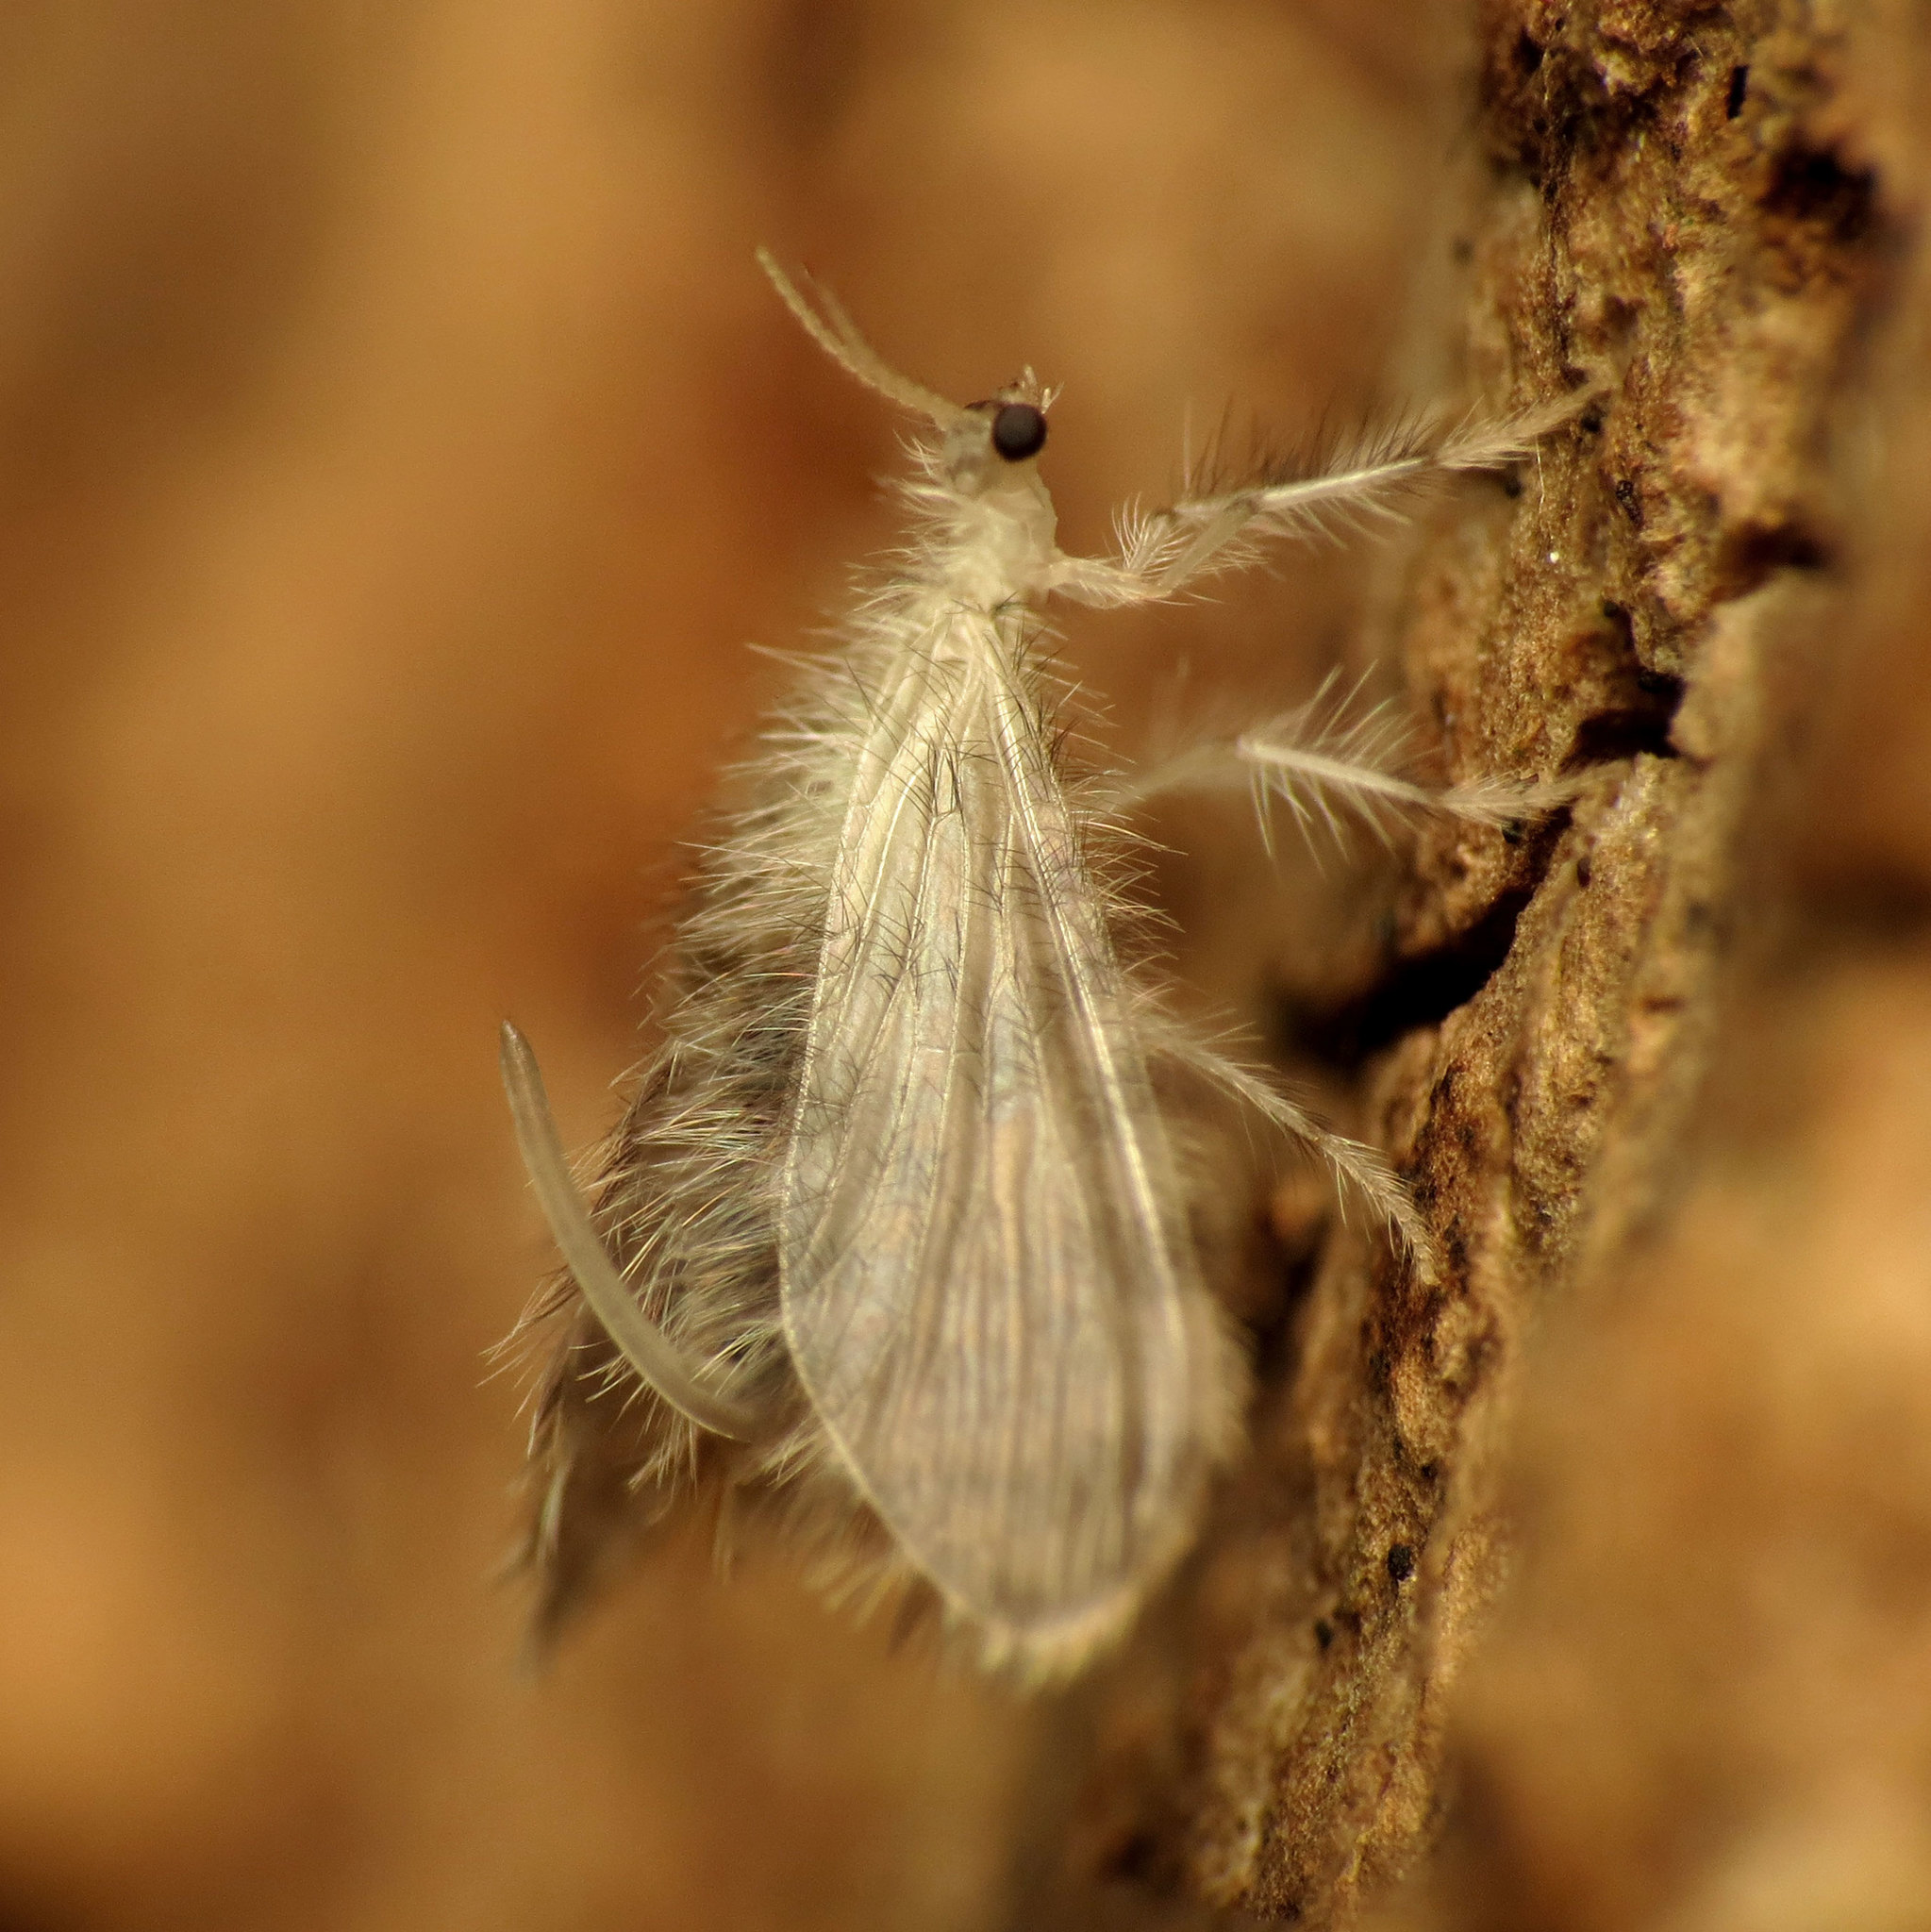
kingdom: Animalia
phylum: Arthropoda
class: Insecta
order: Neuroptera
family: Dilaridae
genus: Nallachius
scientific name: Nallachius americanus
